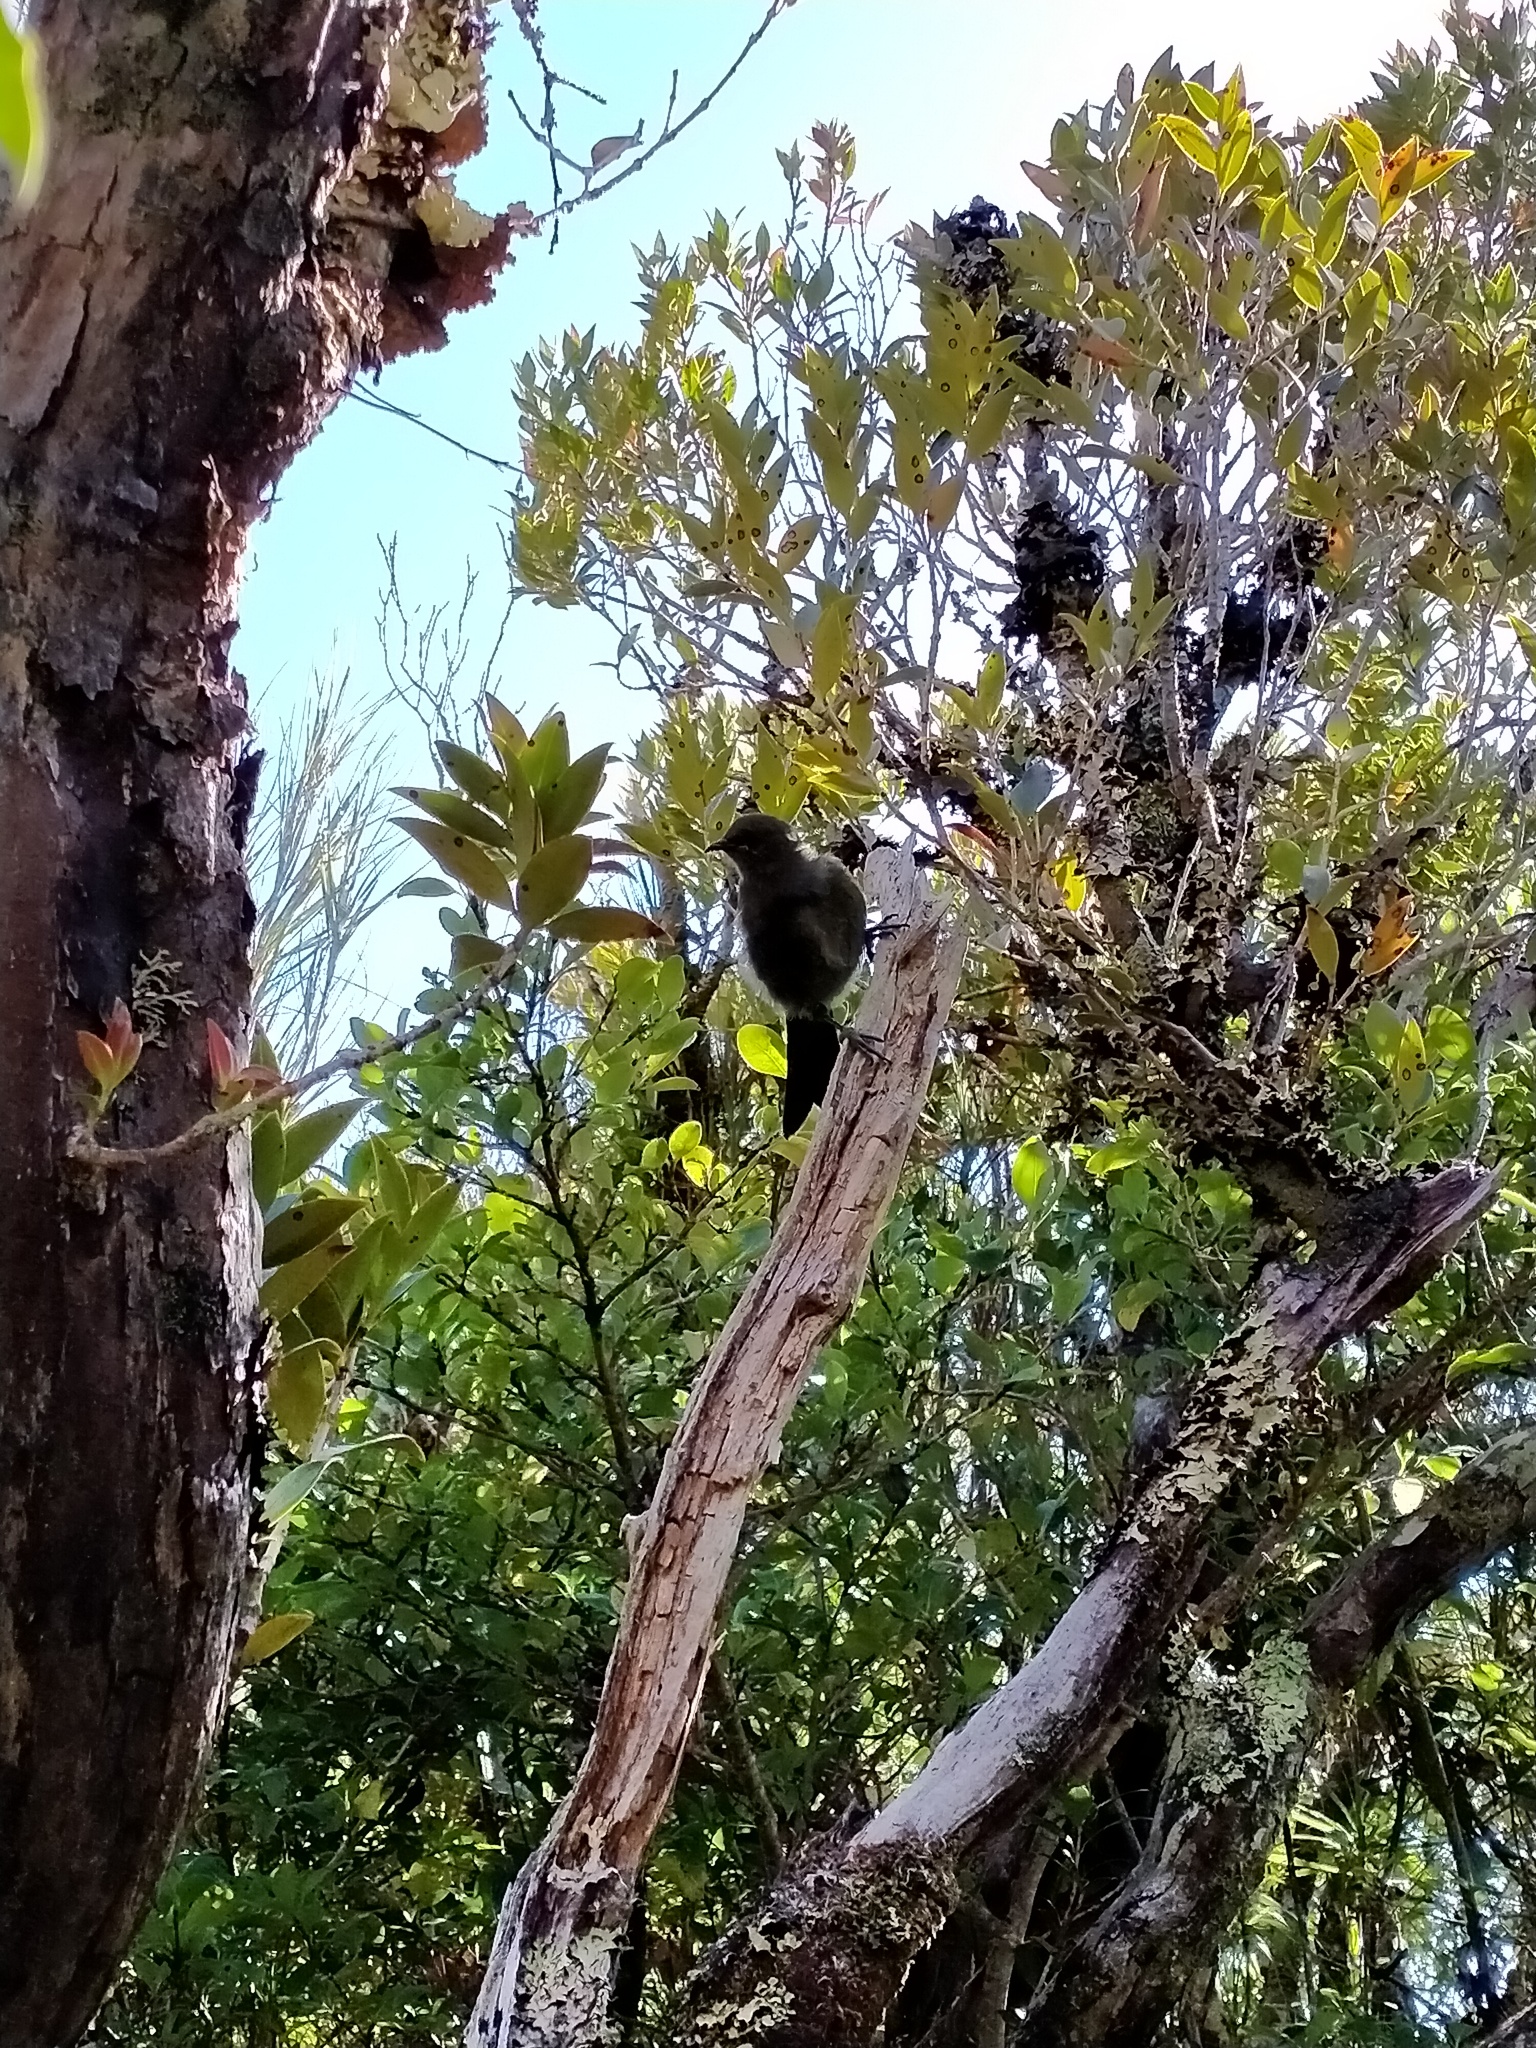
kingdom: Animalia
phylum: Chordata
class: Aves
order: Passeriformes
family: Meliphagidae
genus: Anthornis
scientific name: Anthornis melanura
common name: New zealand bellbird
